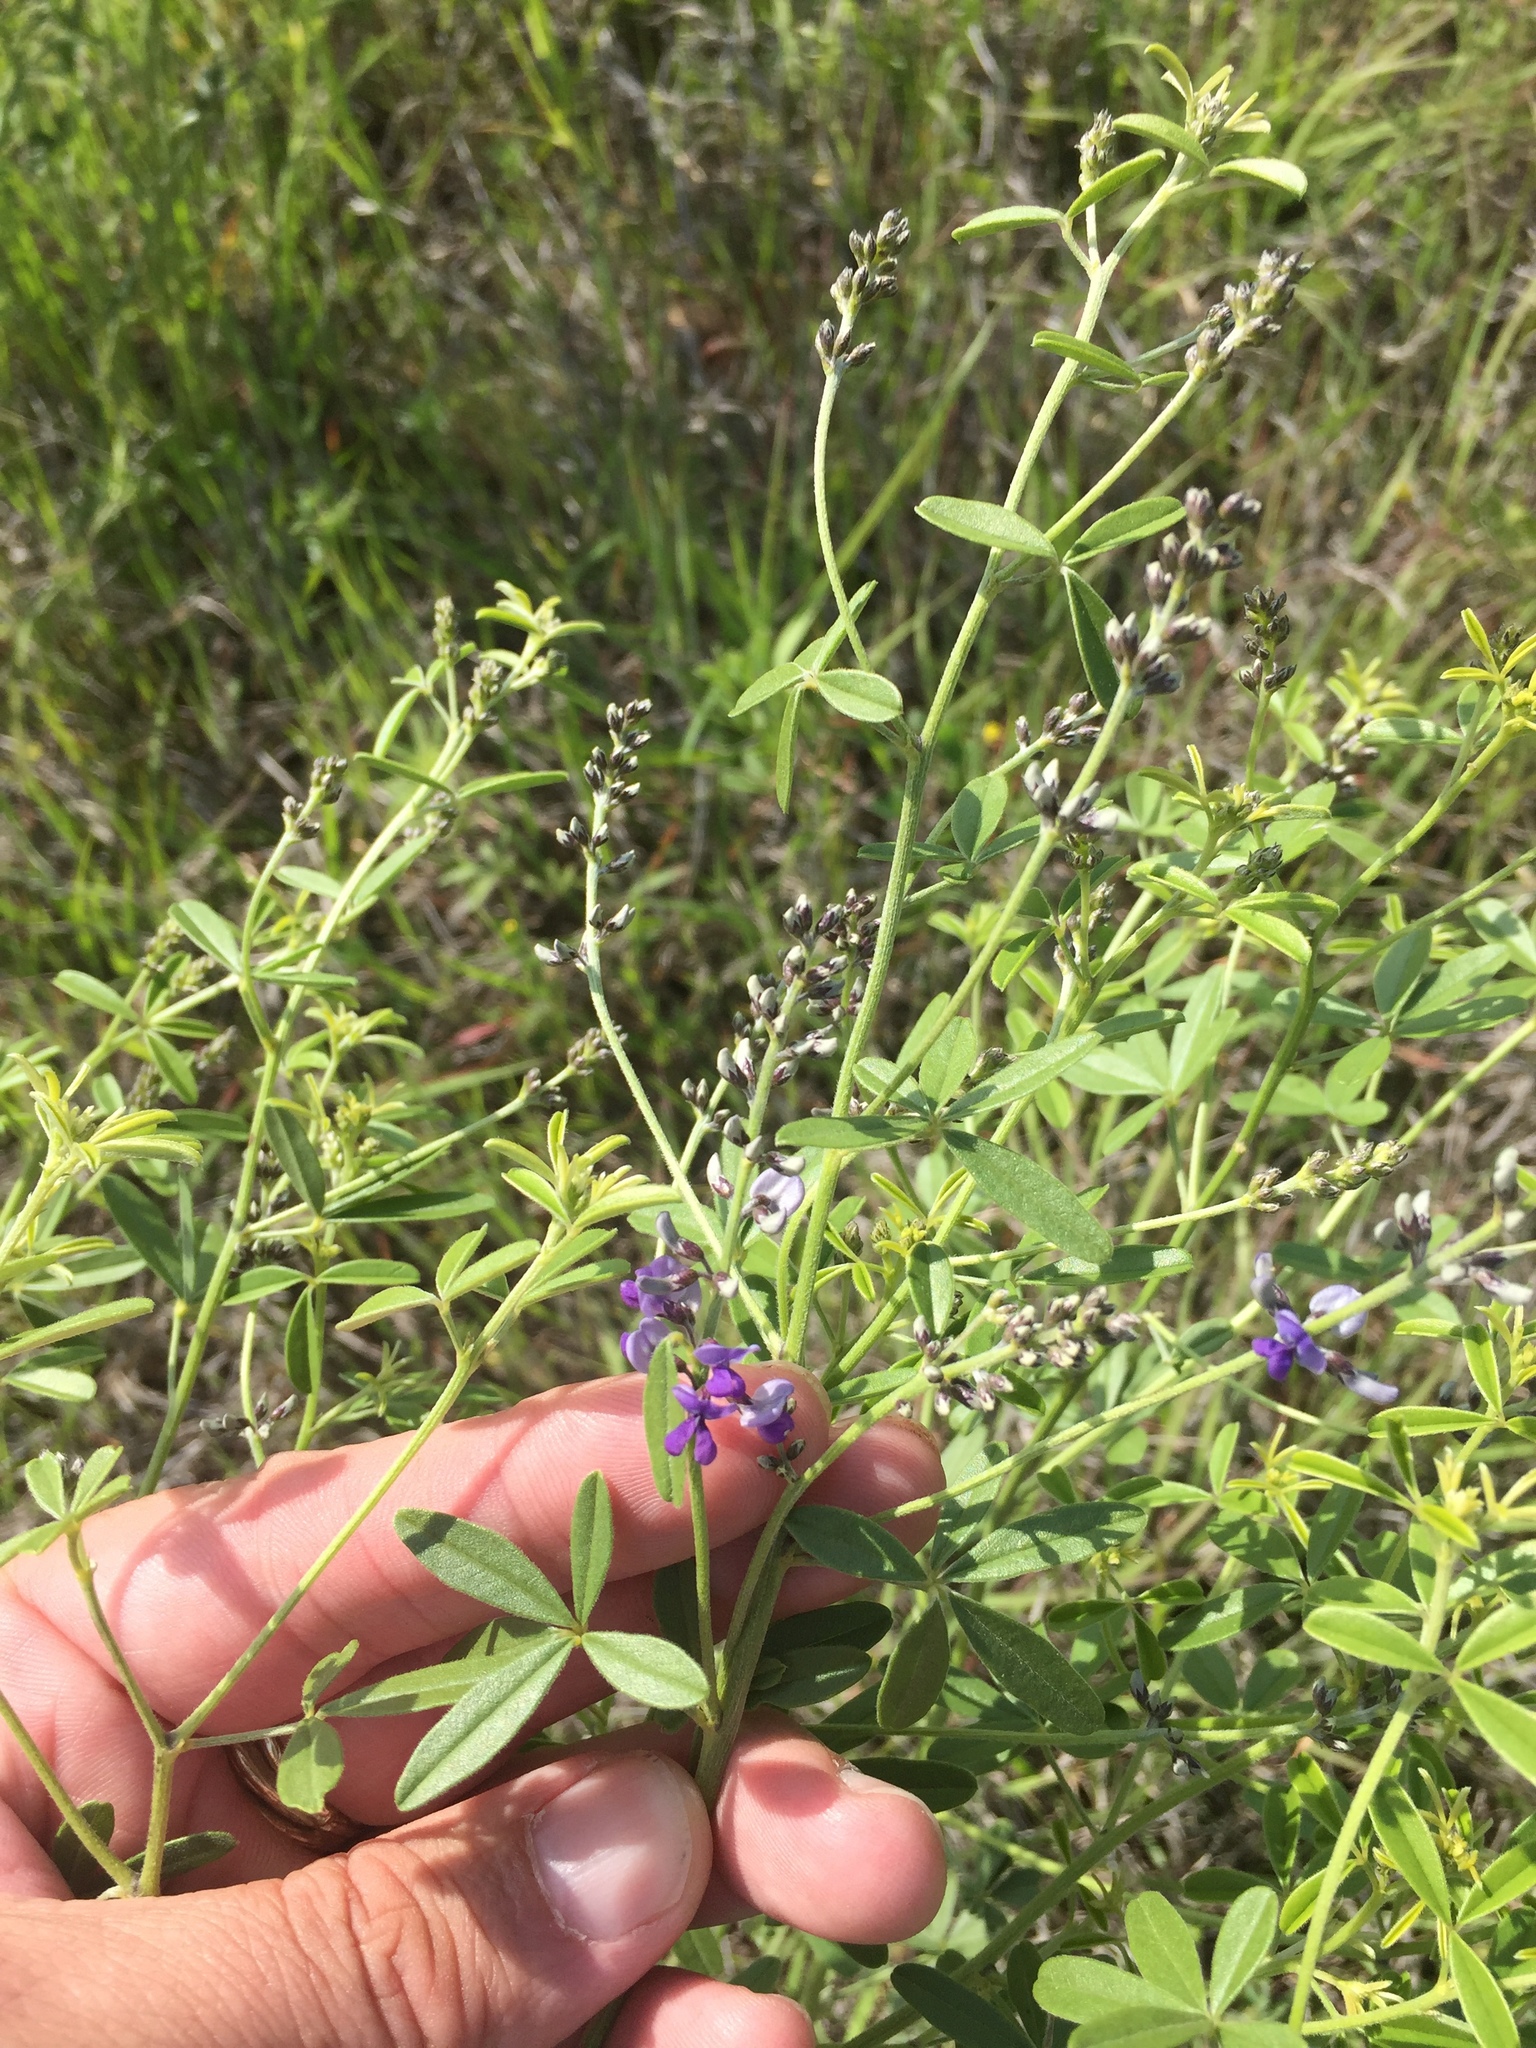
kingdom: Plantae
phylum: Tracheophyta
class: Magnoliopsida
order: Fabales
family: Fabaceae
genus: Pediomelum
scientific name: Pediomelum tenuiflorum
